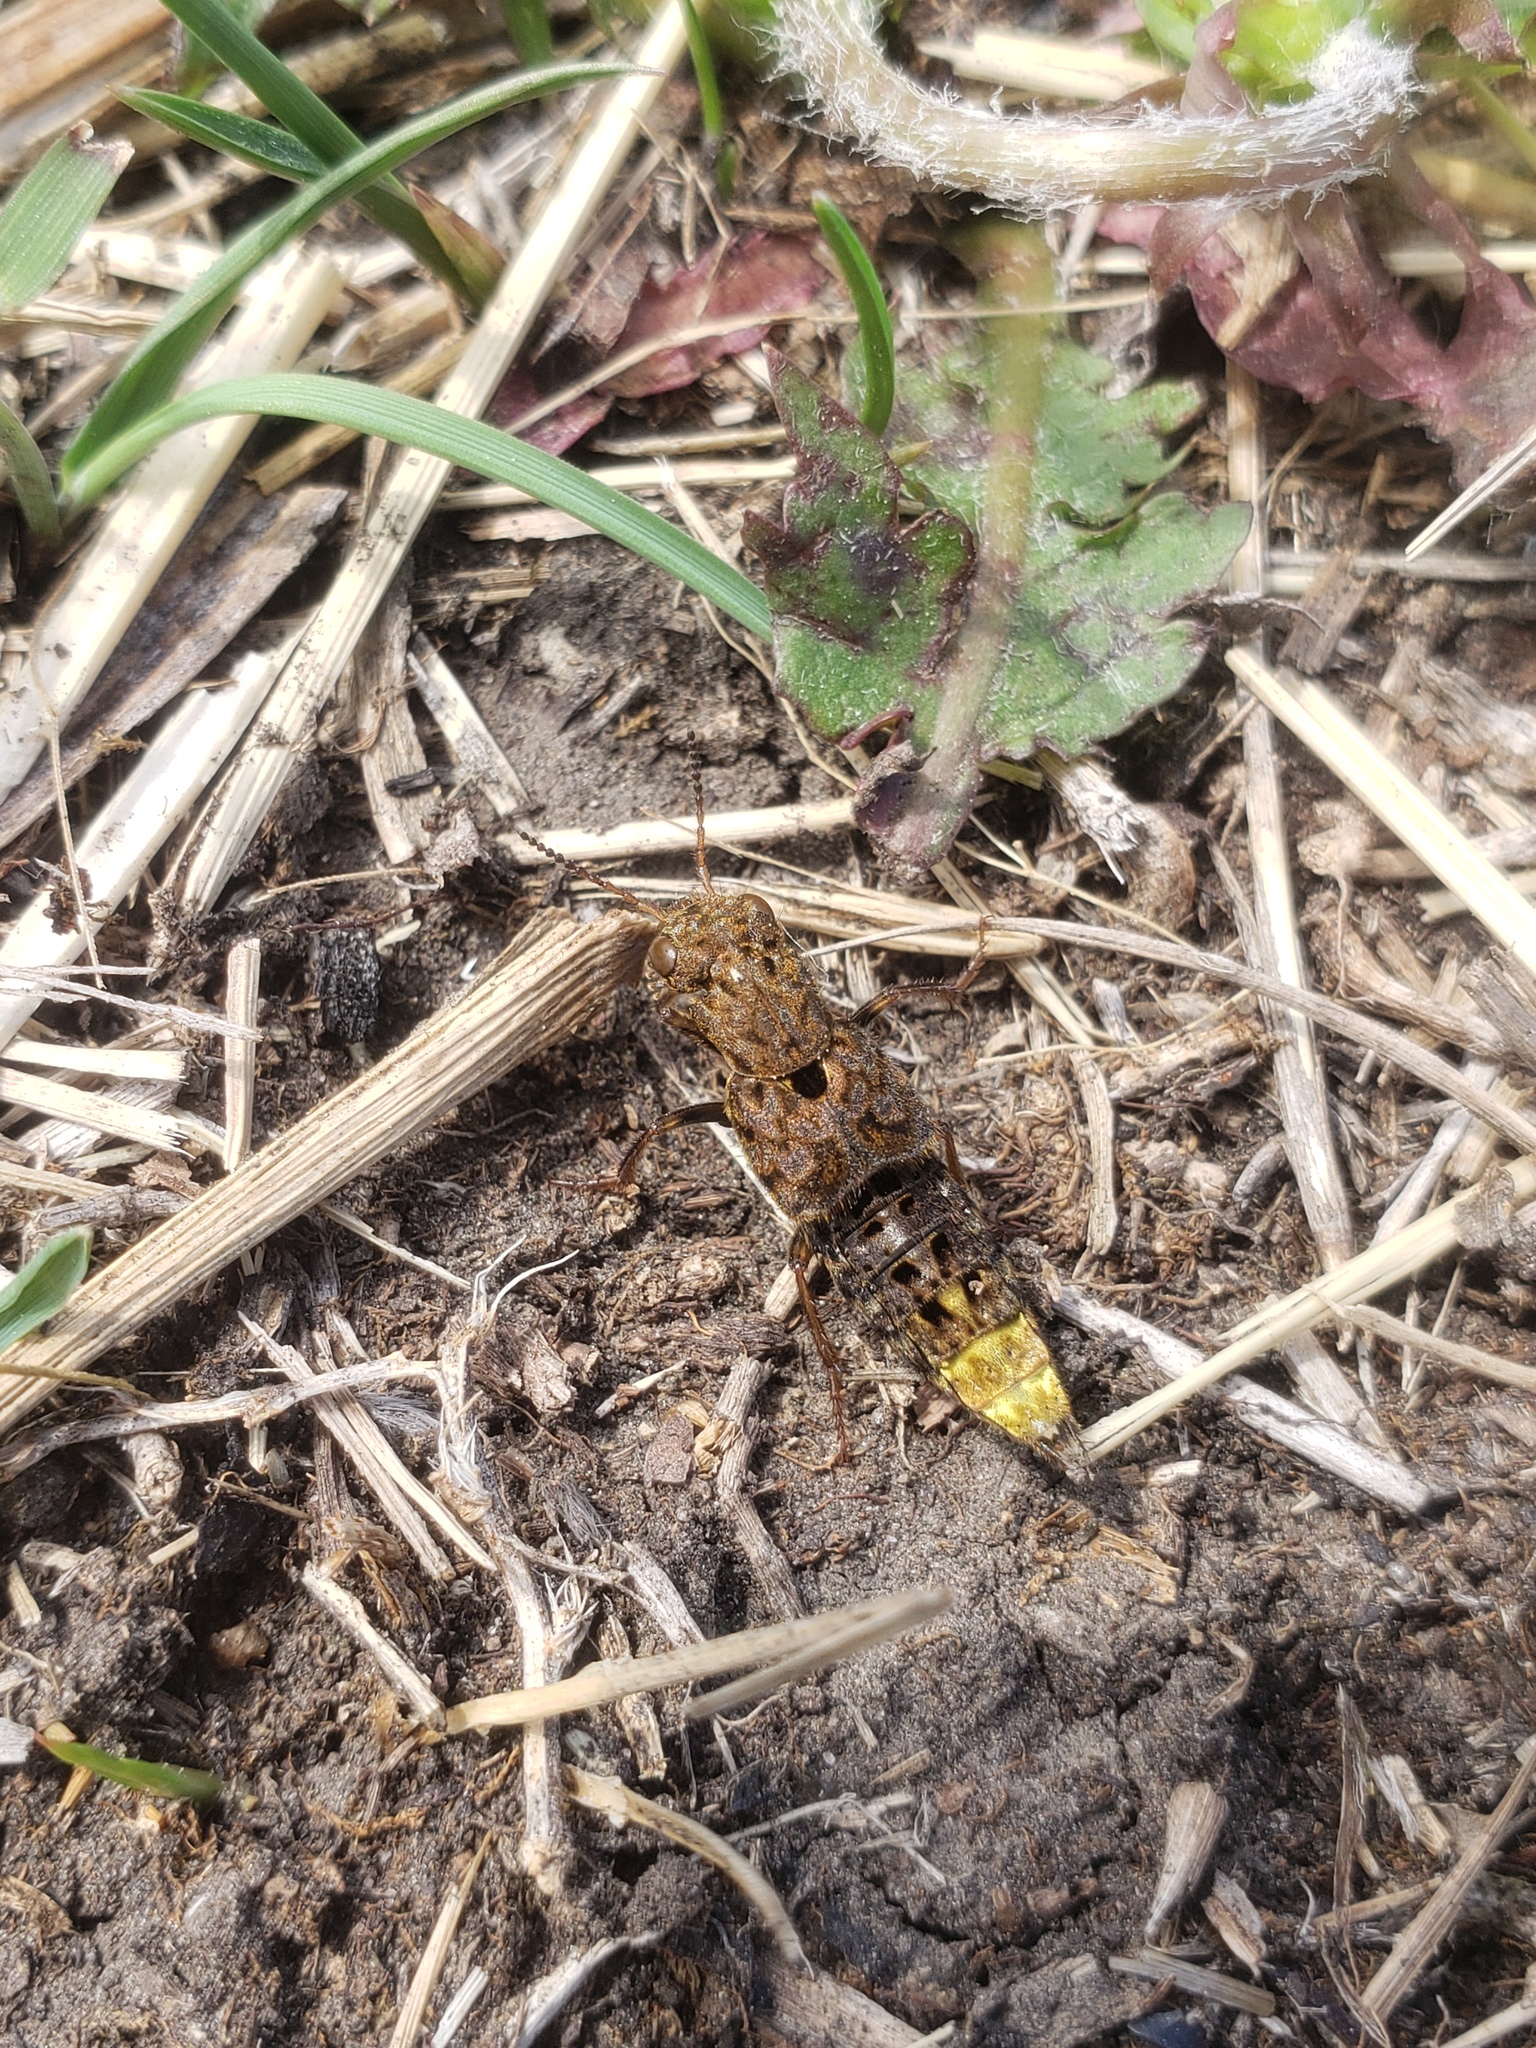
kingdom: Animalia
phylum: Arthropoda
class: Insecta
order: Coleoptera
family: Staphylinidae
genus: Ontholestes
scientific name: Ontholestes cingulatus
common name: Gold-and-brown rove beetle
